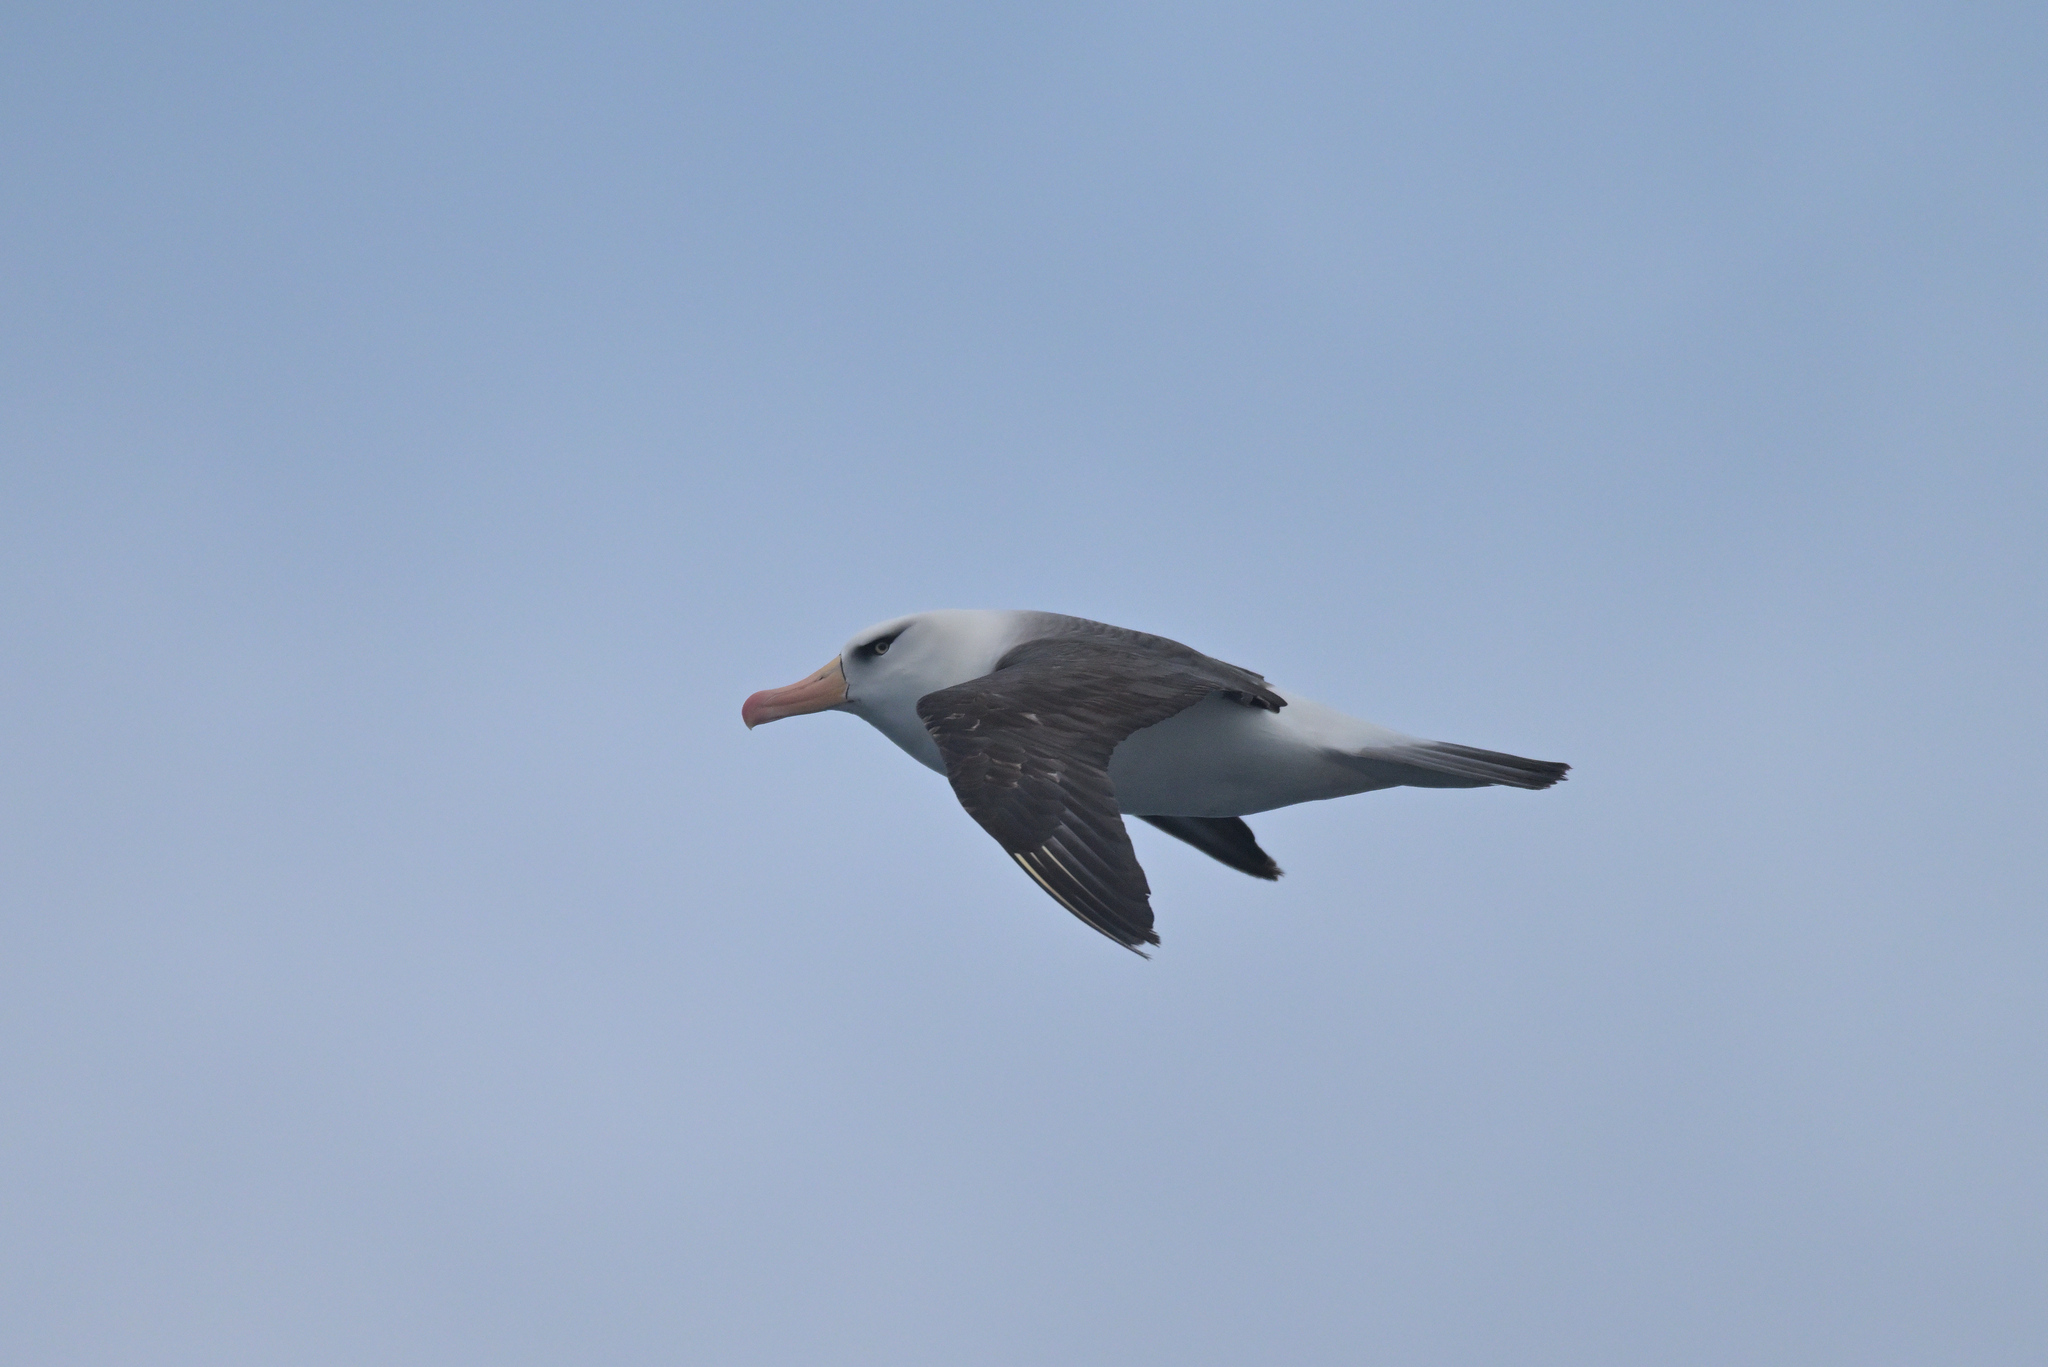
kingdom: Animalia
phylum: Chordata
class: Aves
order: Procellariiformes
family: Diomedeidae
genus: Thalassarche
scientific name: Thalassarche impavida
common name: Campbell albatross
